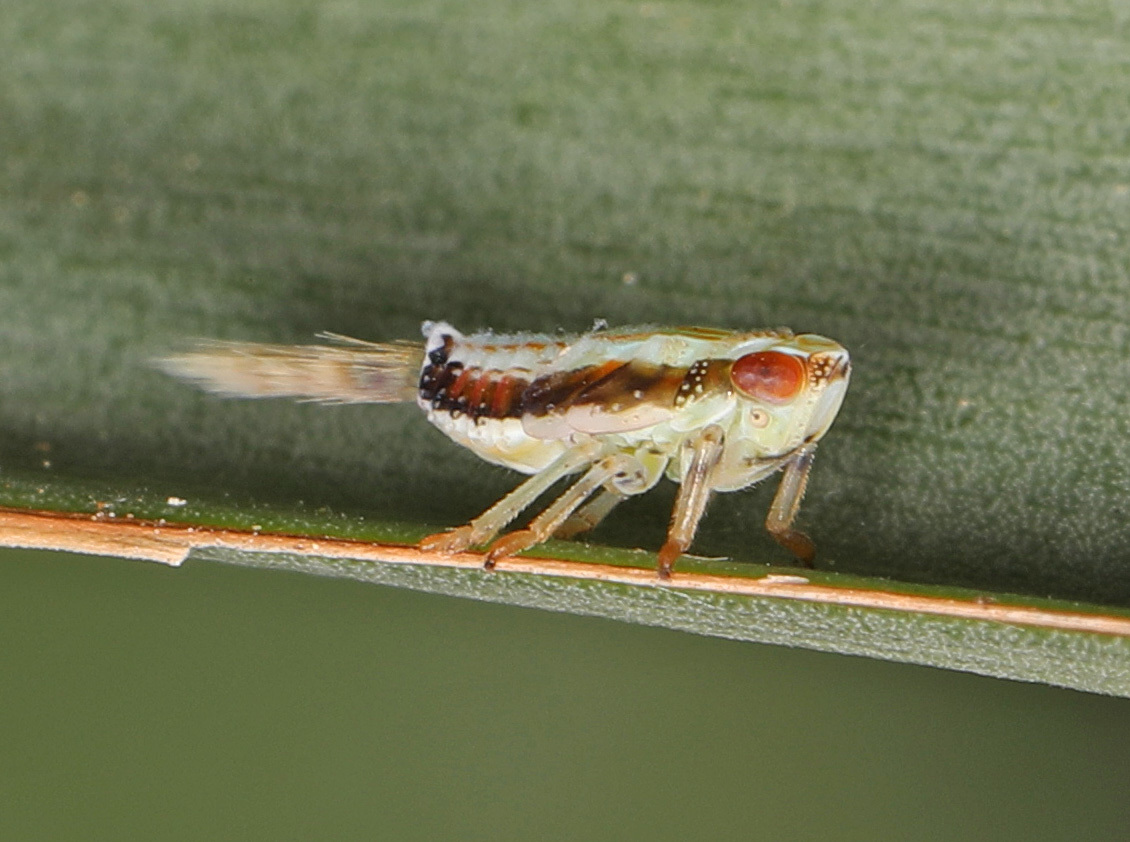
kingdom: Animalia
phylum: Arthropoda
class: Insecta
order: Hemiptera
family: Issidae
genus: Thionia
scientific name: Thionia bullata
